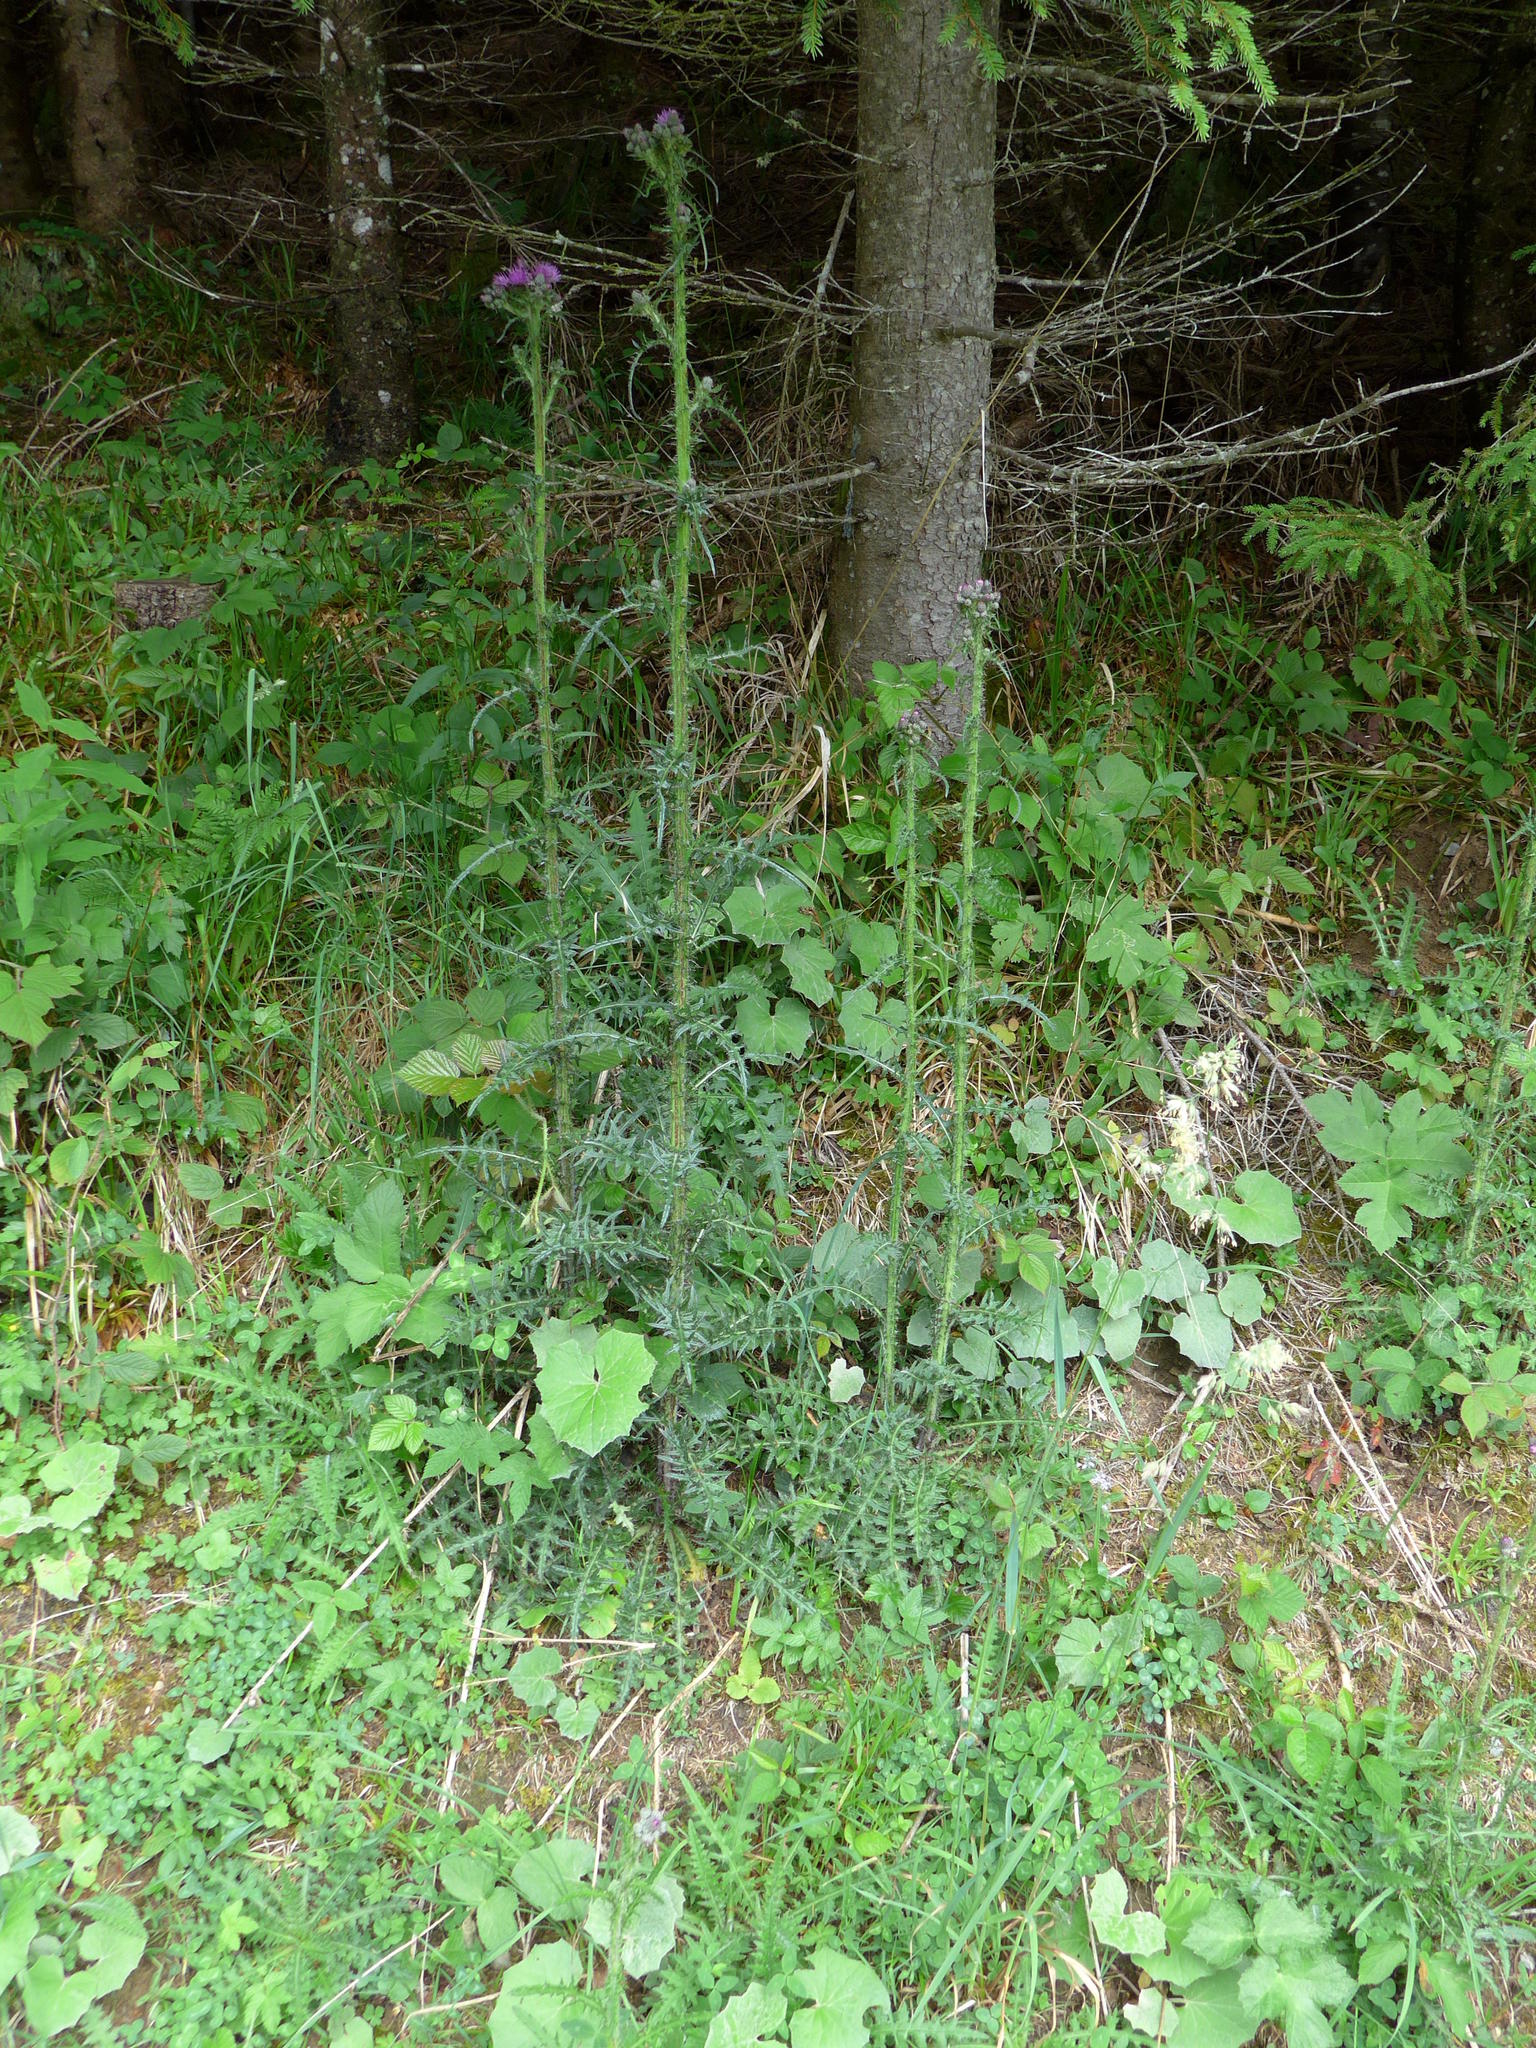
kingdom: Plantae
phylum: Tracheophyta
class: Magnoliopsida
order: Asterales
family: Asteraceae
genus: Cirsium
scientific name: Cirsium palustre
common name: Marsh thistle
